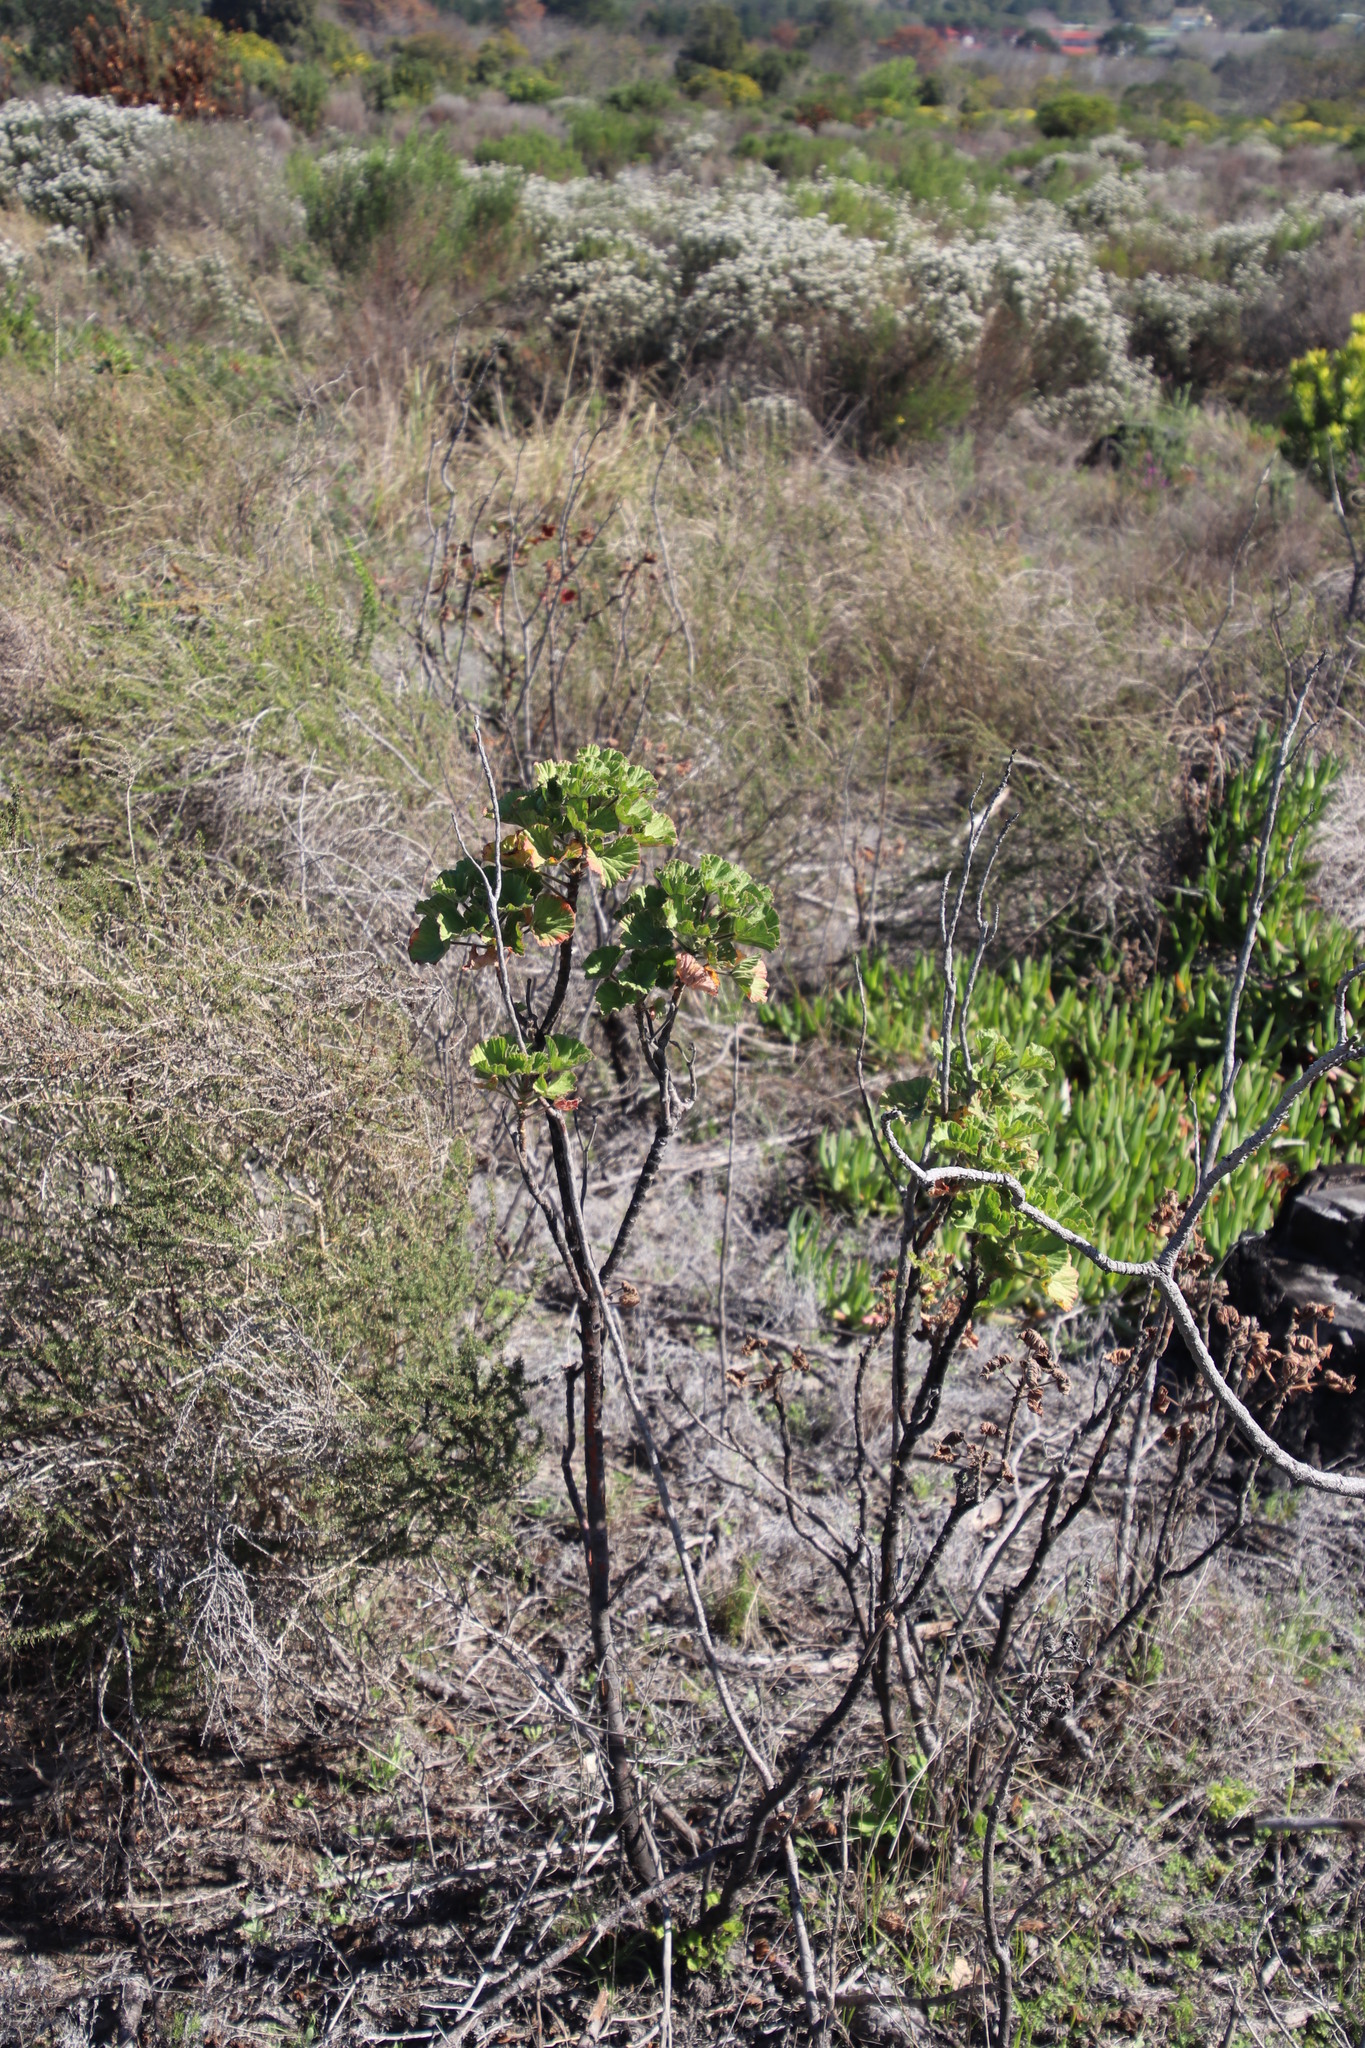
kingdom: Plantae
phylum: Tracheophyta
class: Magnoliopsida
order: Geraniales
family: Geraniaceae
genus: Pelargonium
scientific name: Pelargonium cucullatum
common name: Tree pelargonium
